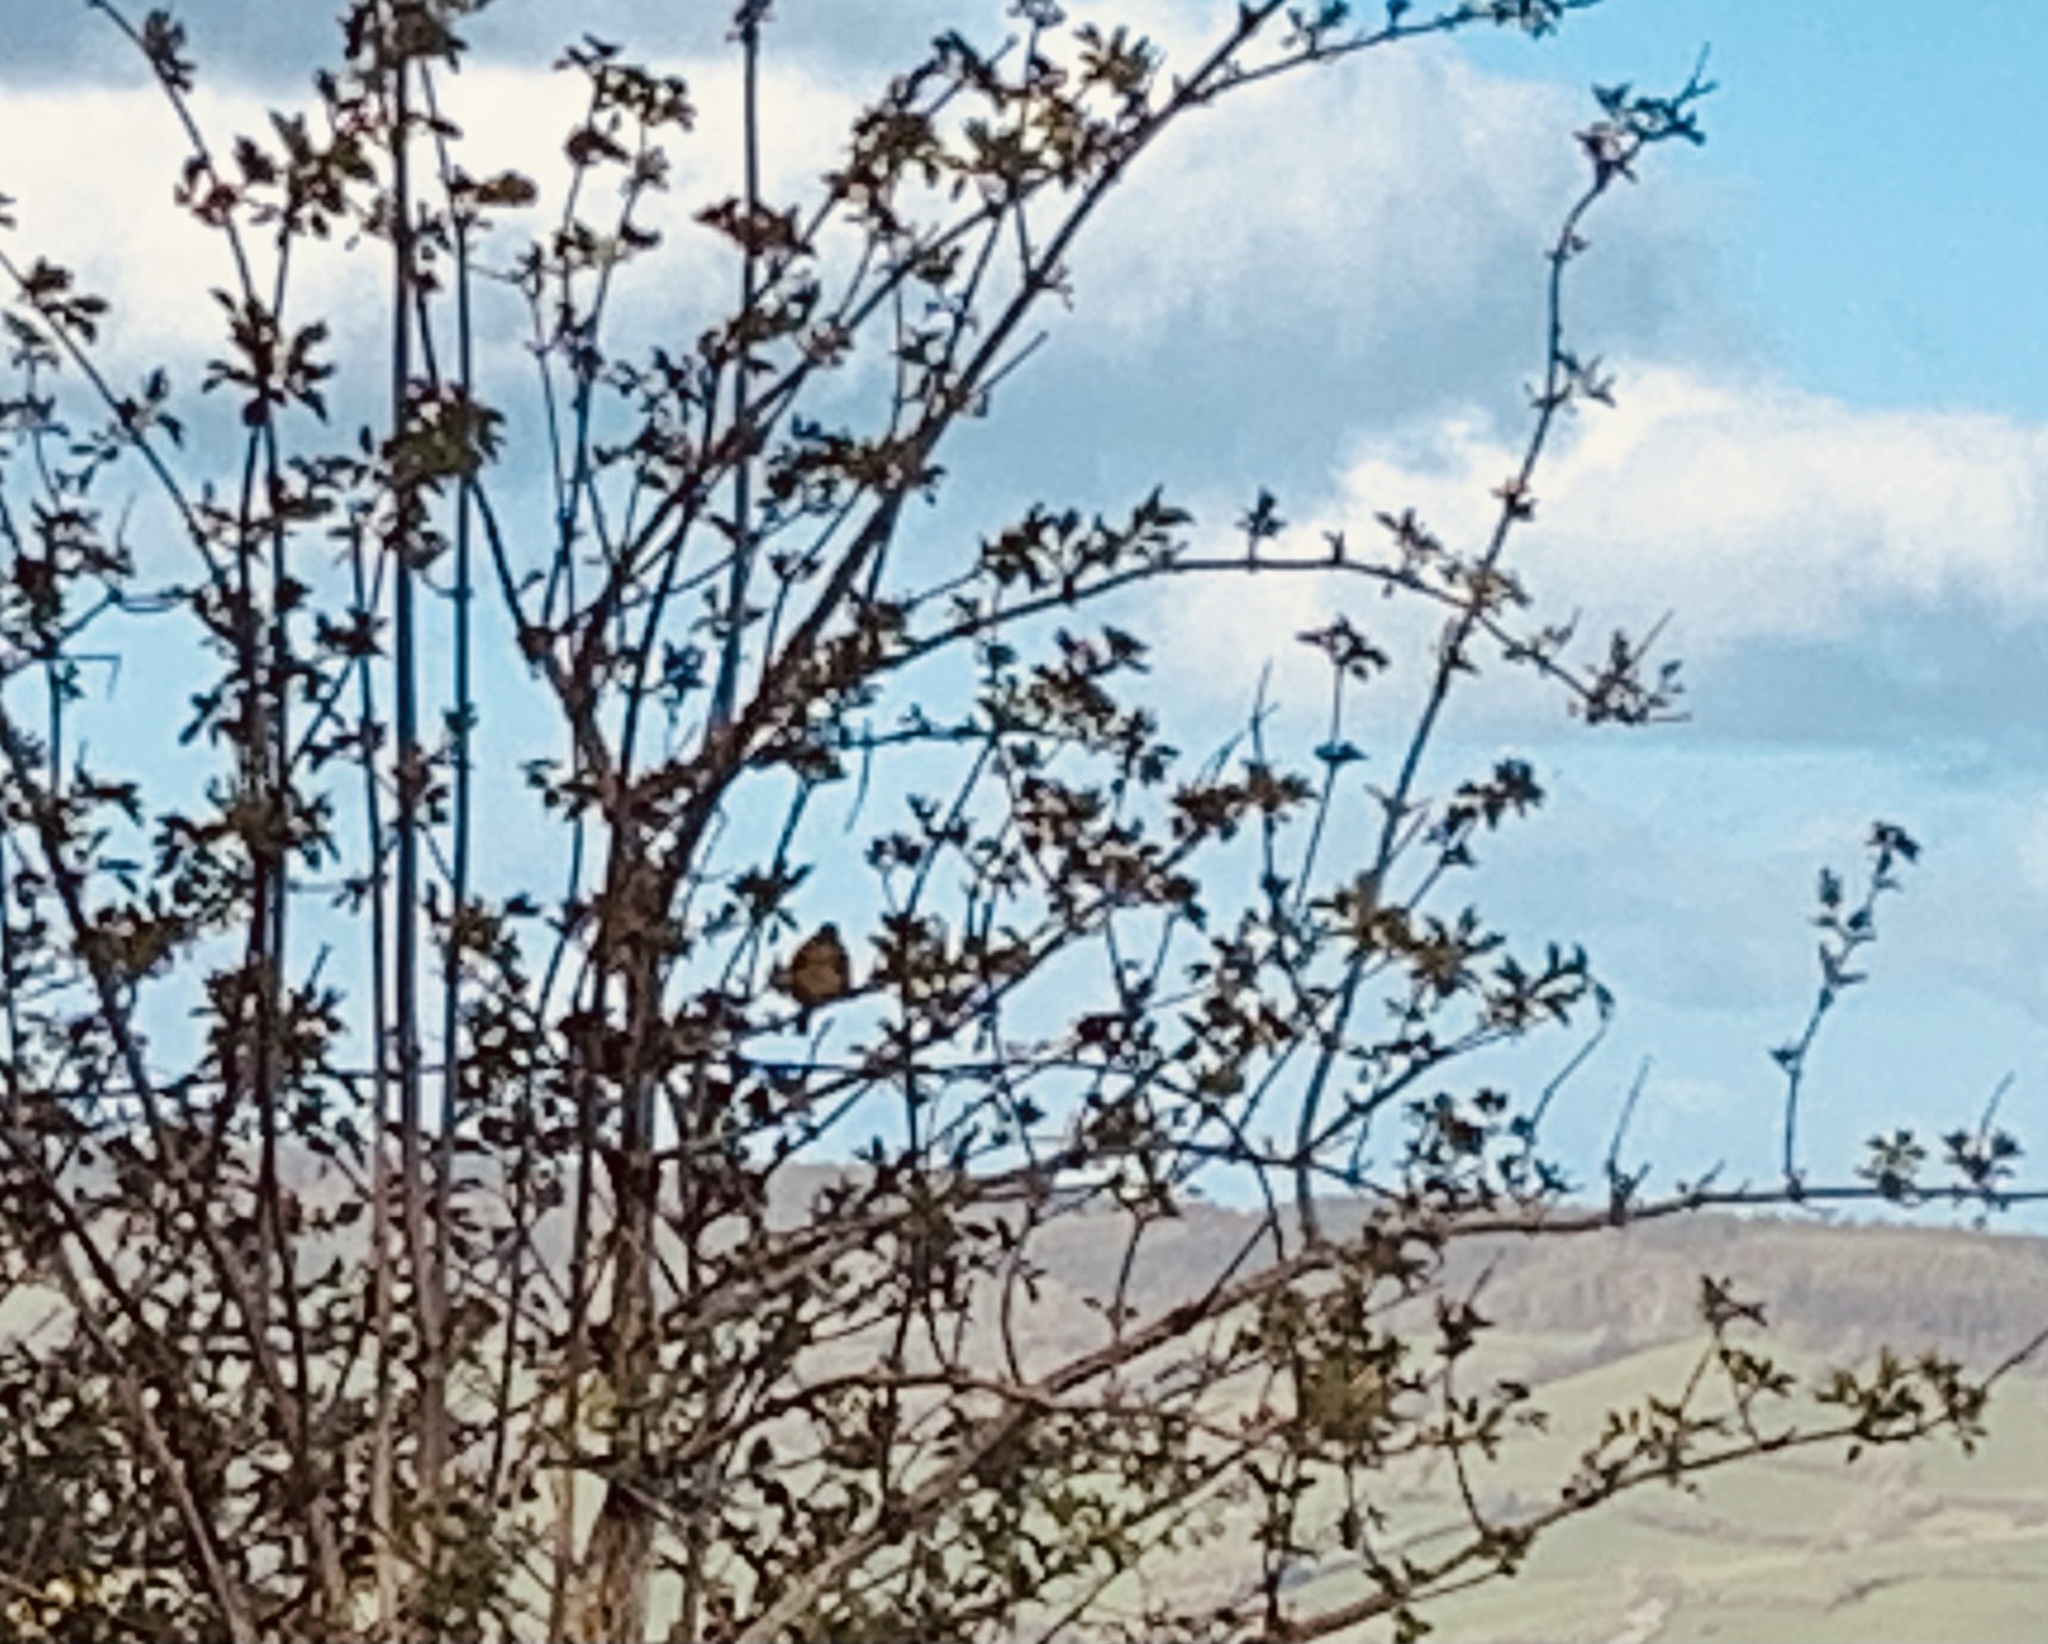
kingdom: Animalia
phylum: Chordata
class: Aves
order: Passeriformes
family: Emberizidae
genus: Emberiza
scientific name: Emberiza cirlus
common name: Cirl bunting
